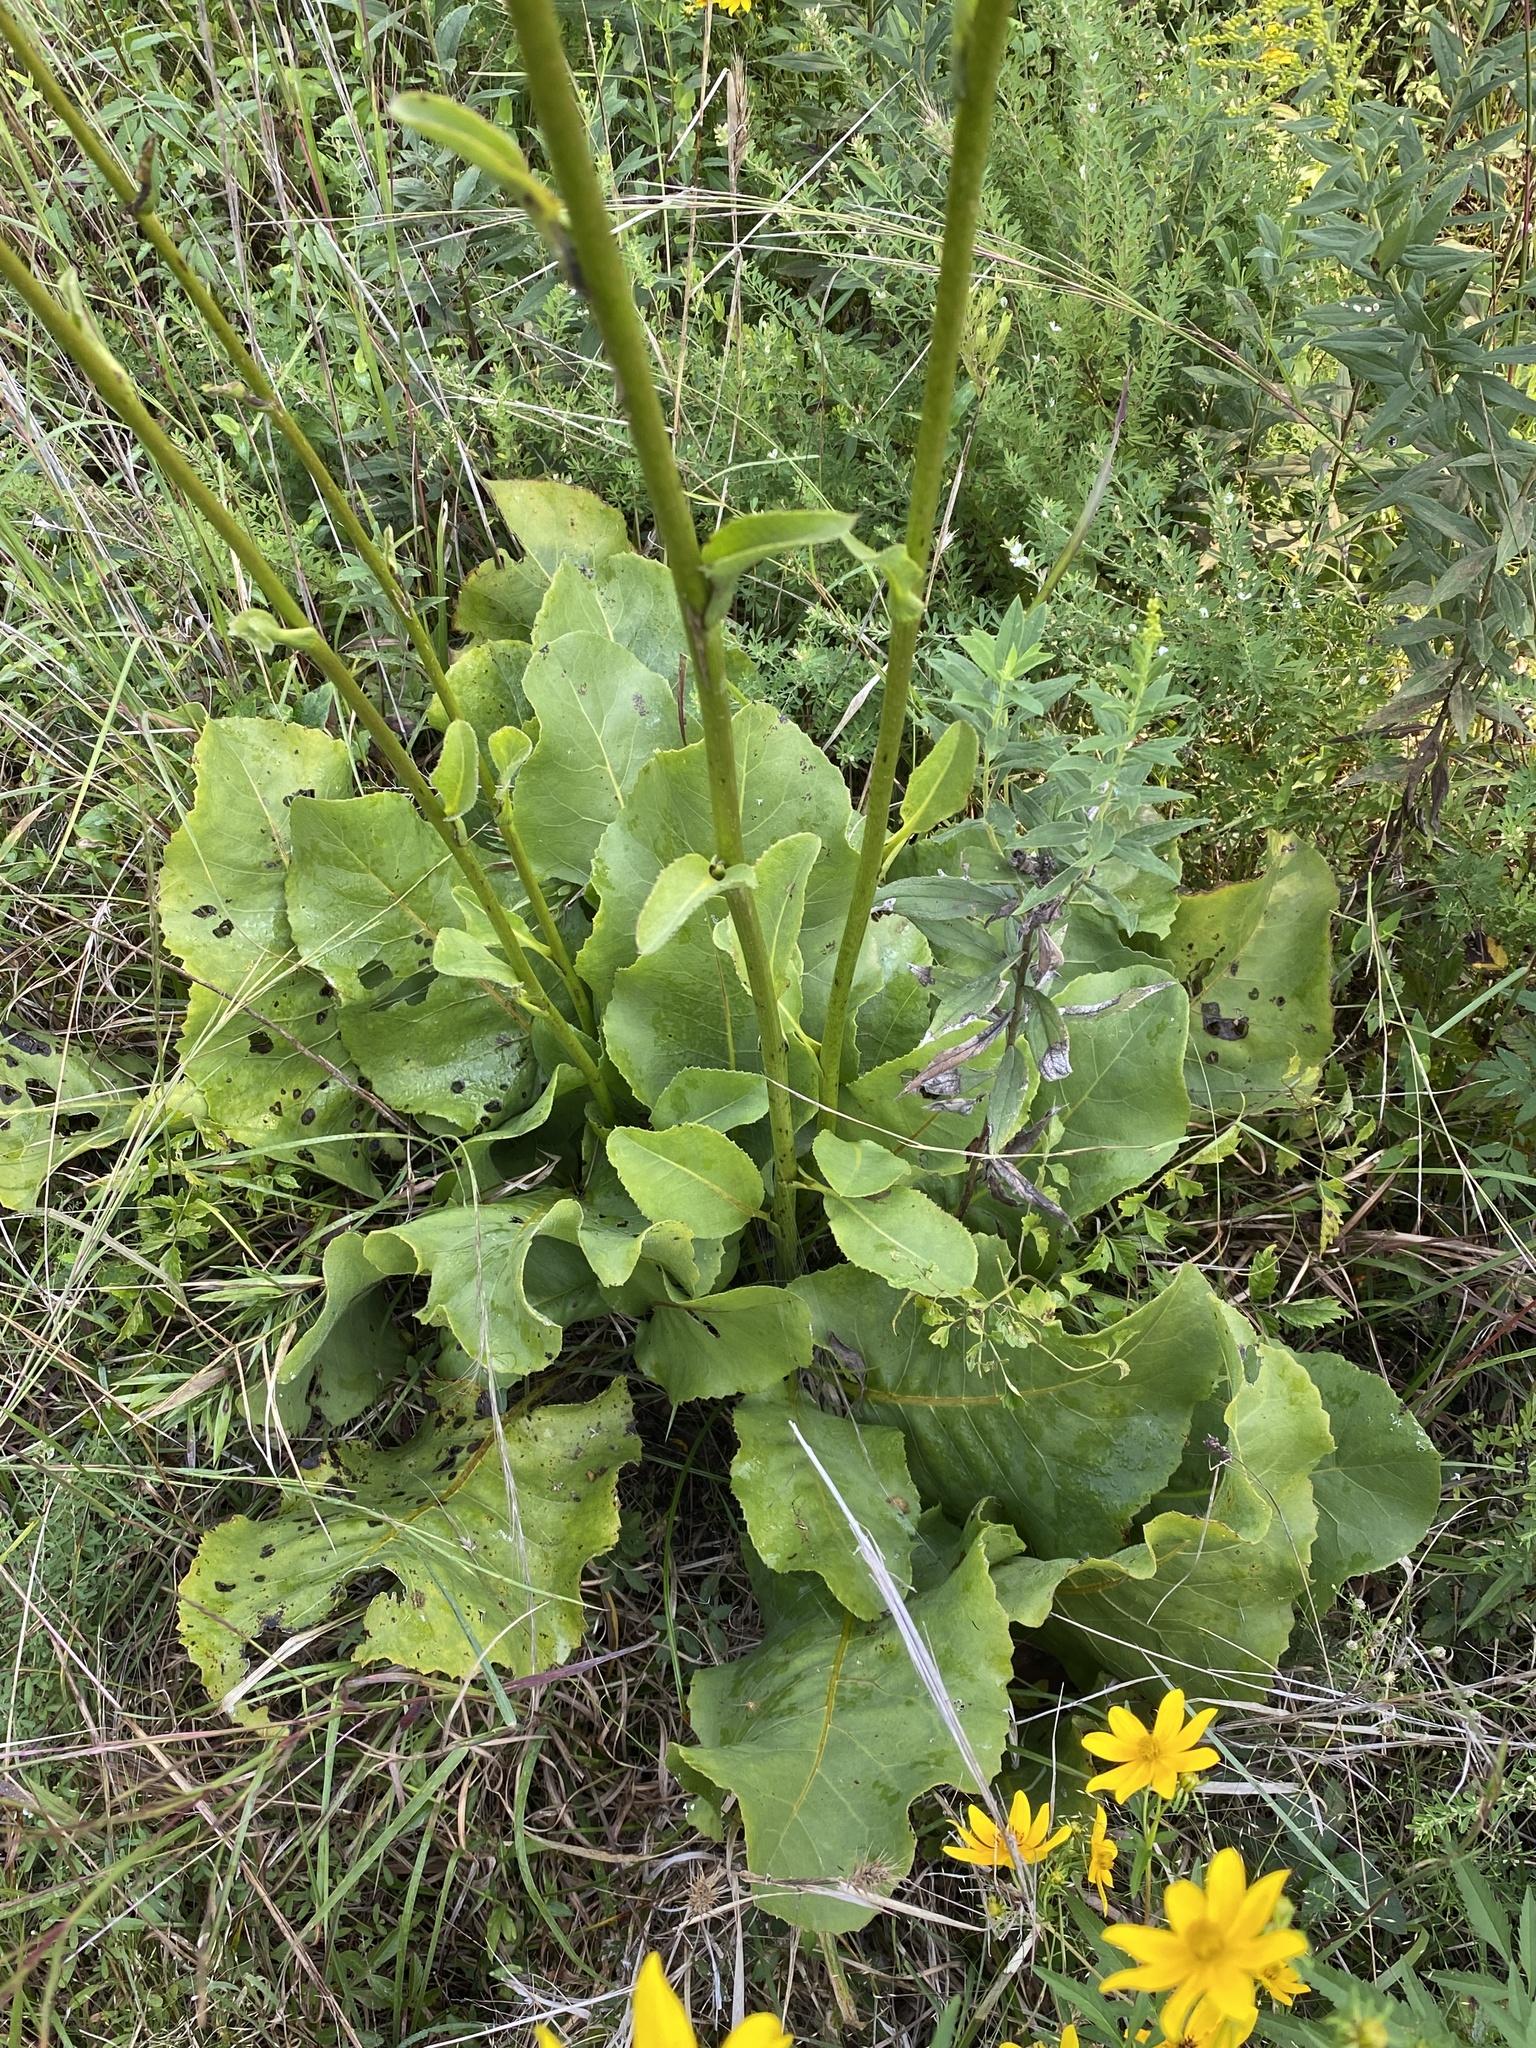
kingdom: Plantae
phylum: Tracheophyta
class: Magnoliopsida
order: Asterales
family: Asteraceae
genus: Silphium
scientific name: Silphium terebinthinaceum
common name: Basal-leaf rosinweed
